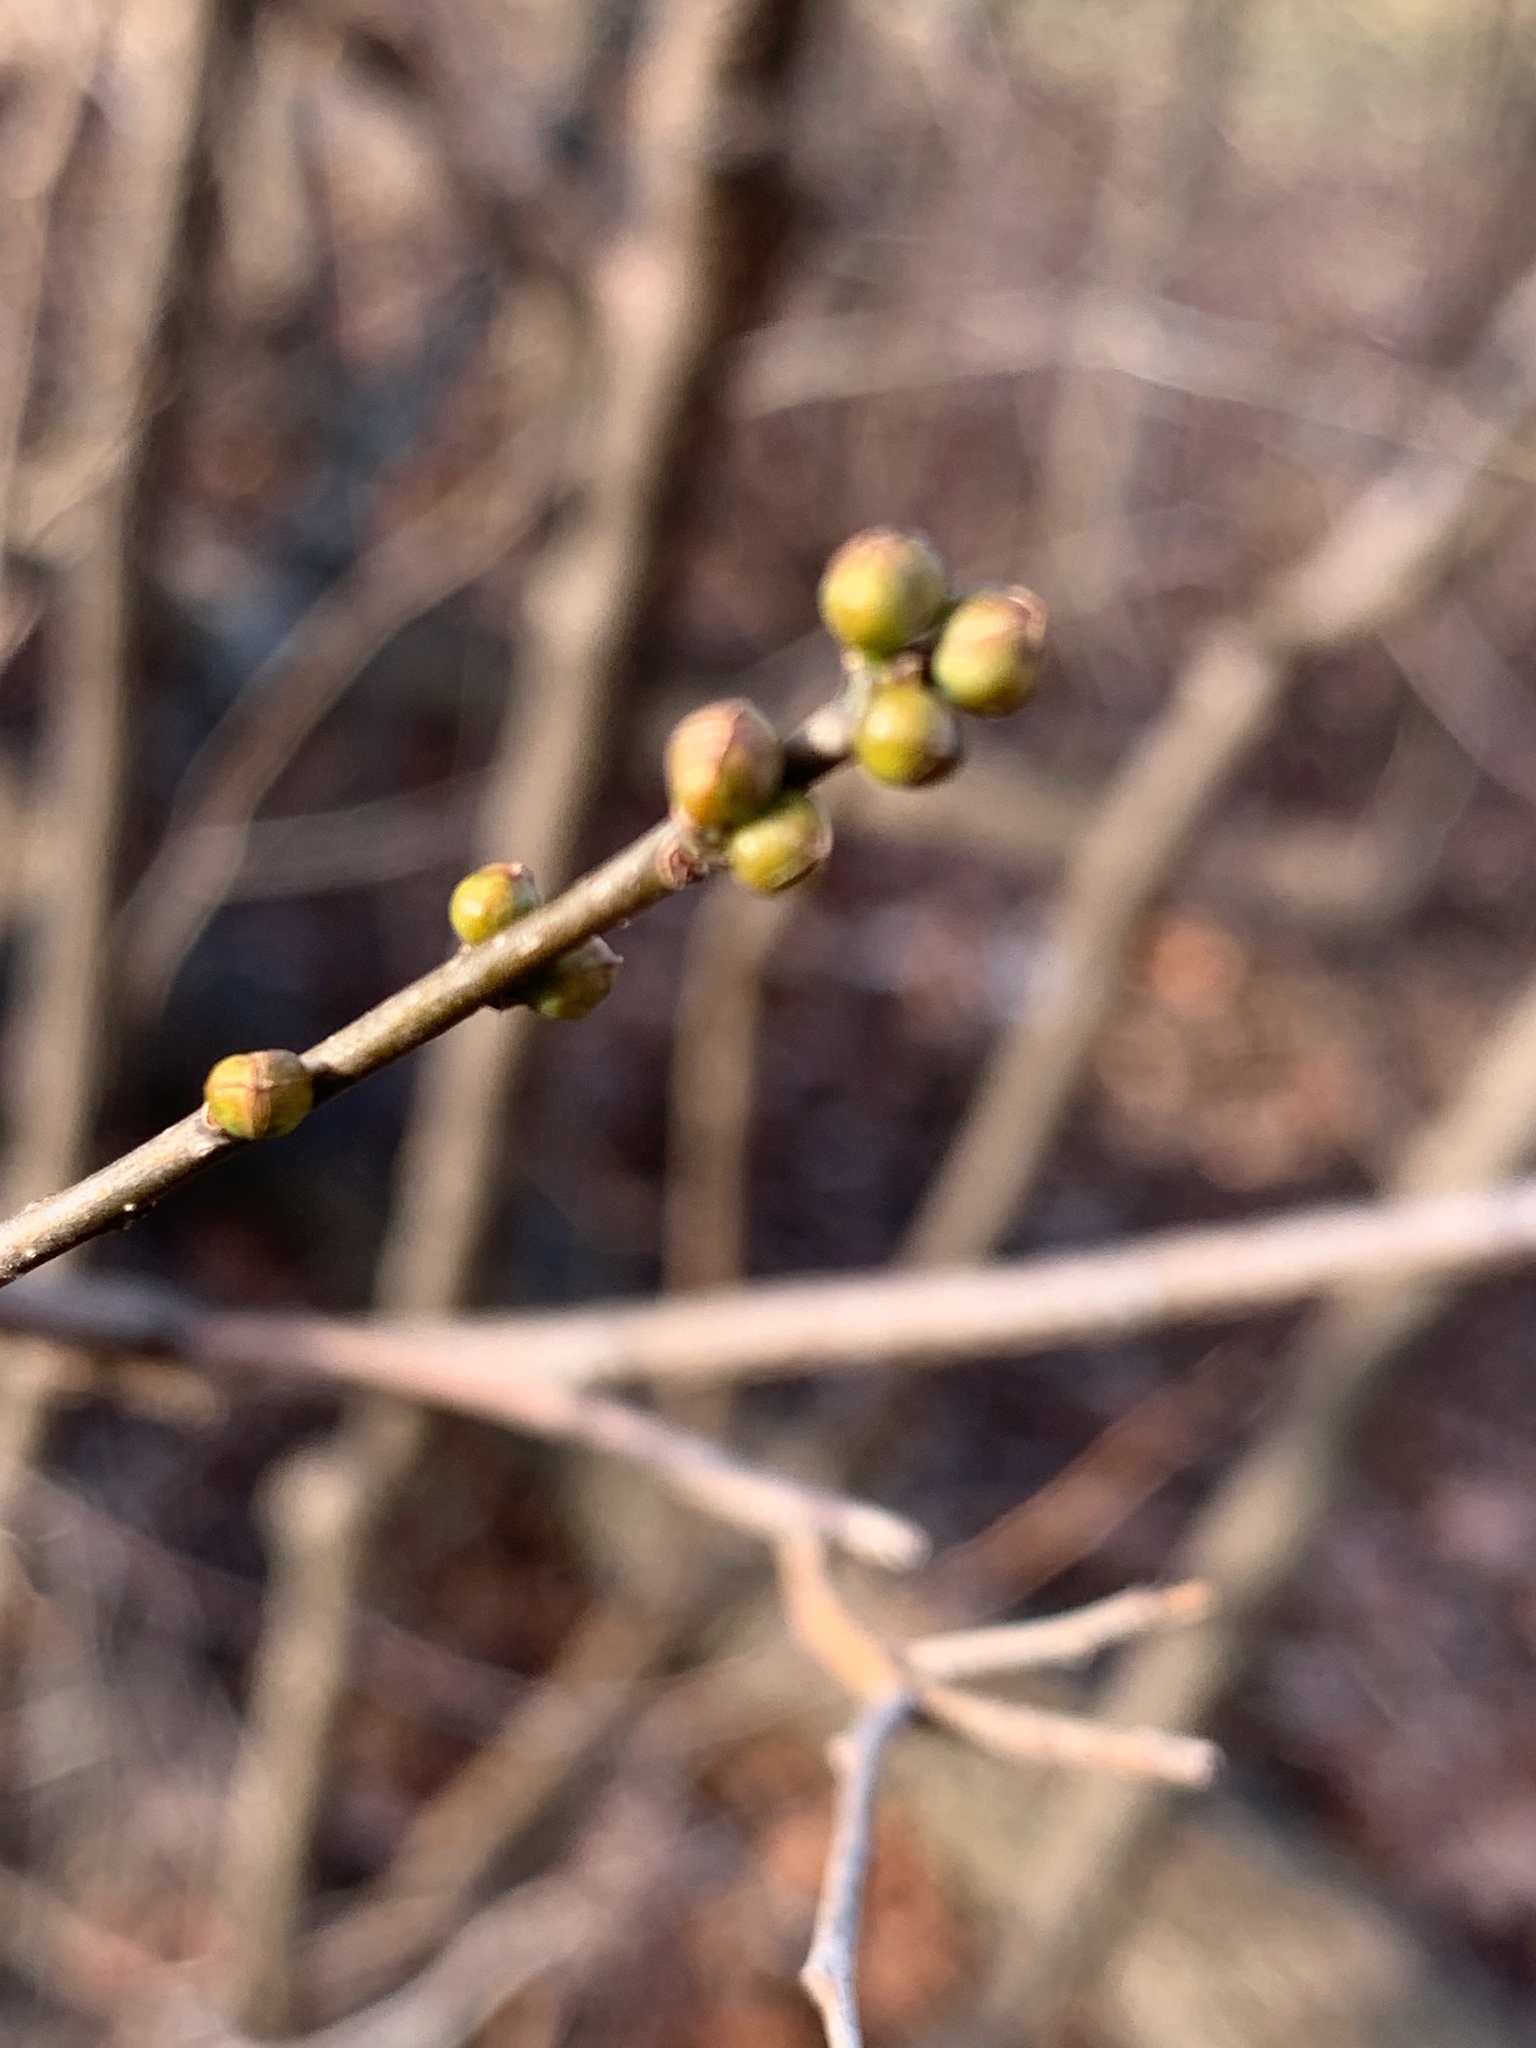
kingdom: Plantae
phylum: Tracheophyta
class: Magnoliopsida
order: Laurales
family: Lauraceae
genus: Lindera
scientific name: Lindera benzoin
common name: Spicebush
